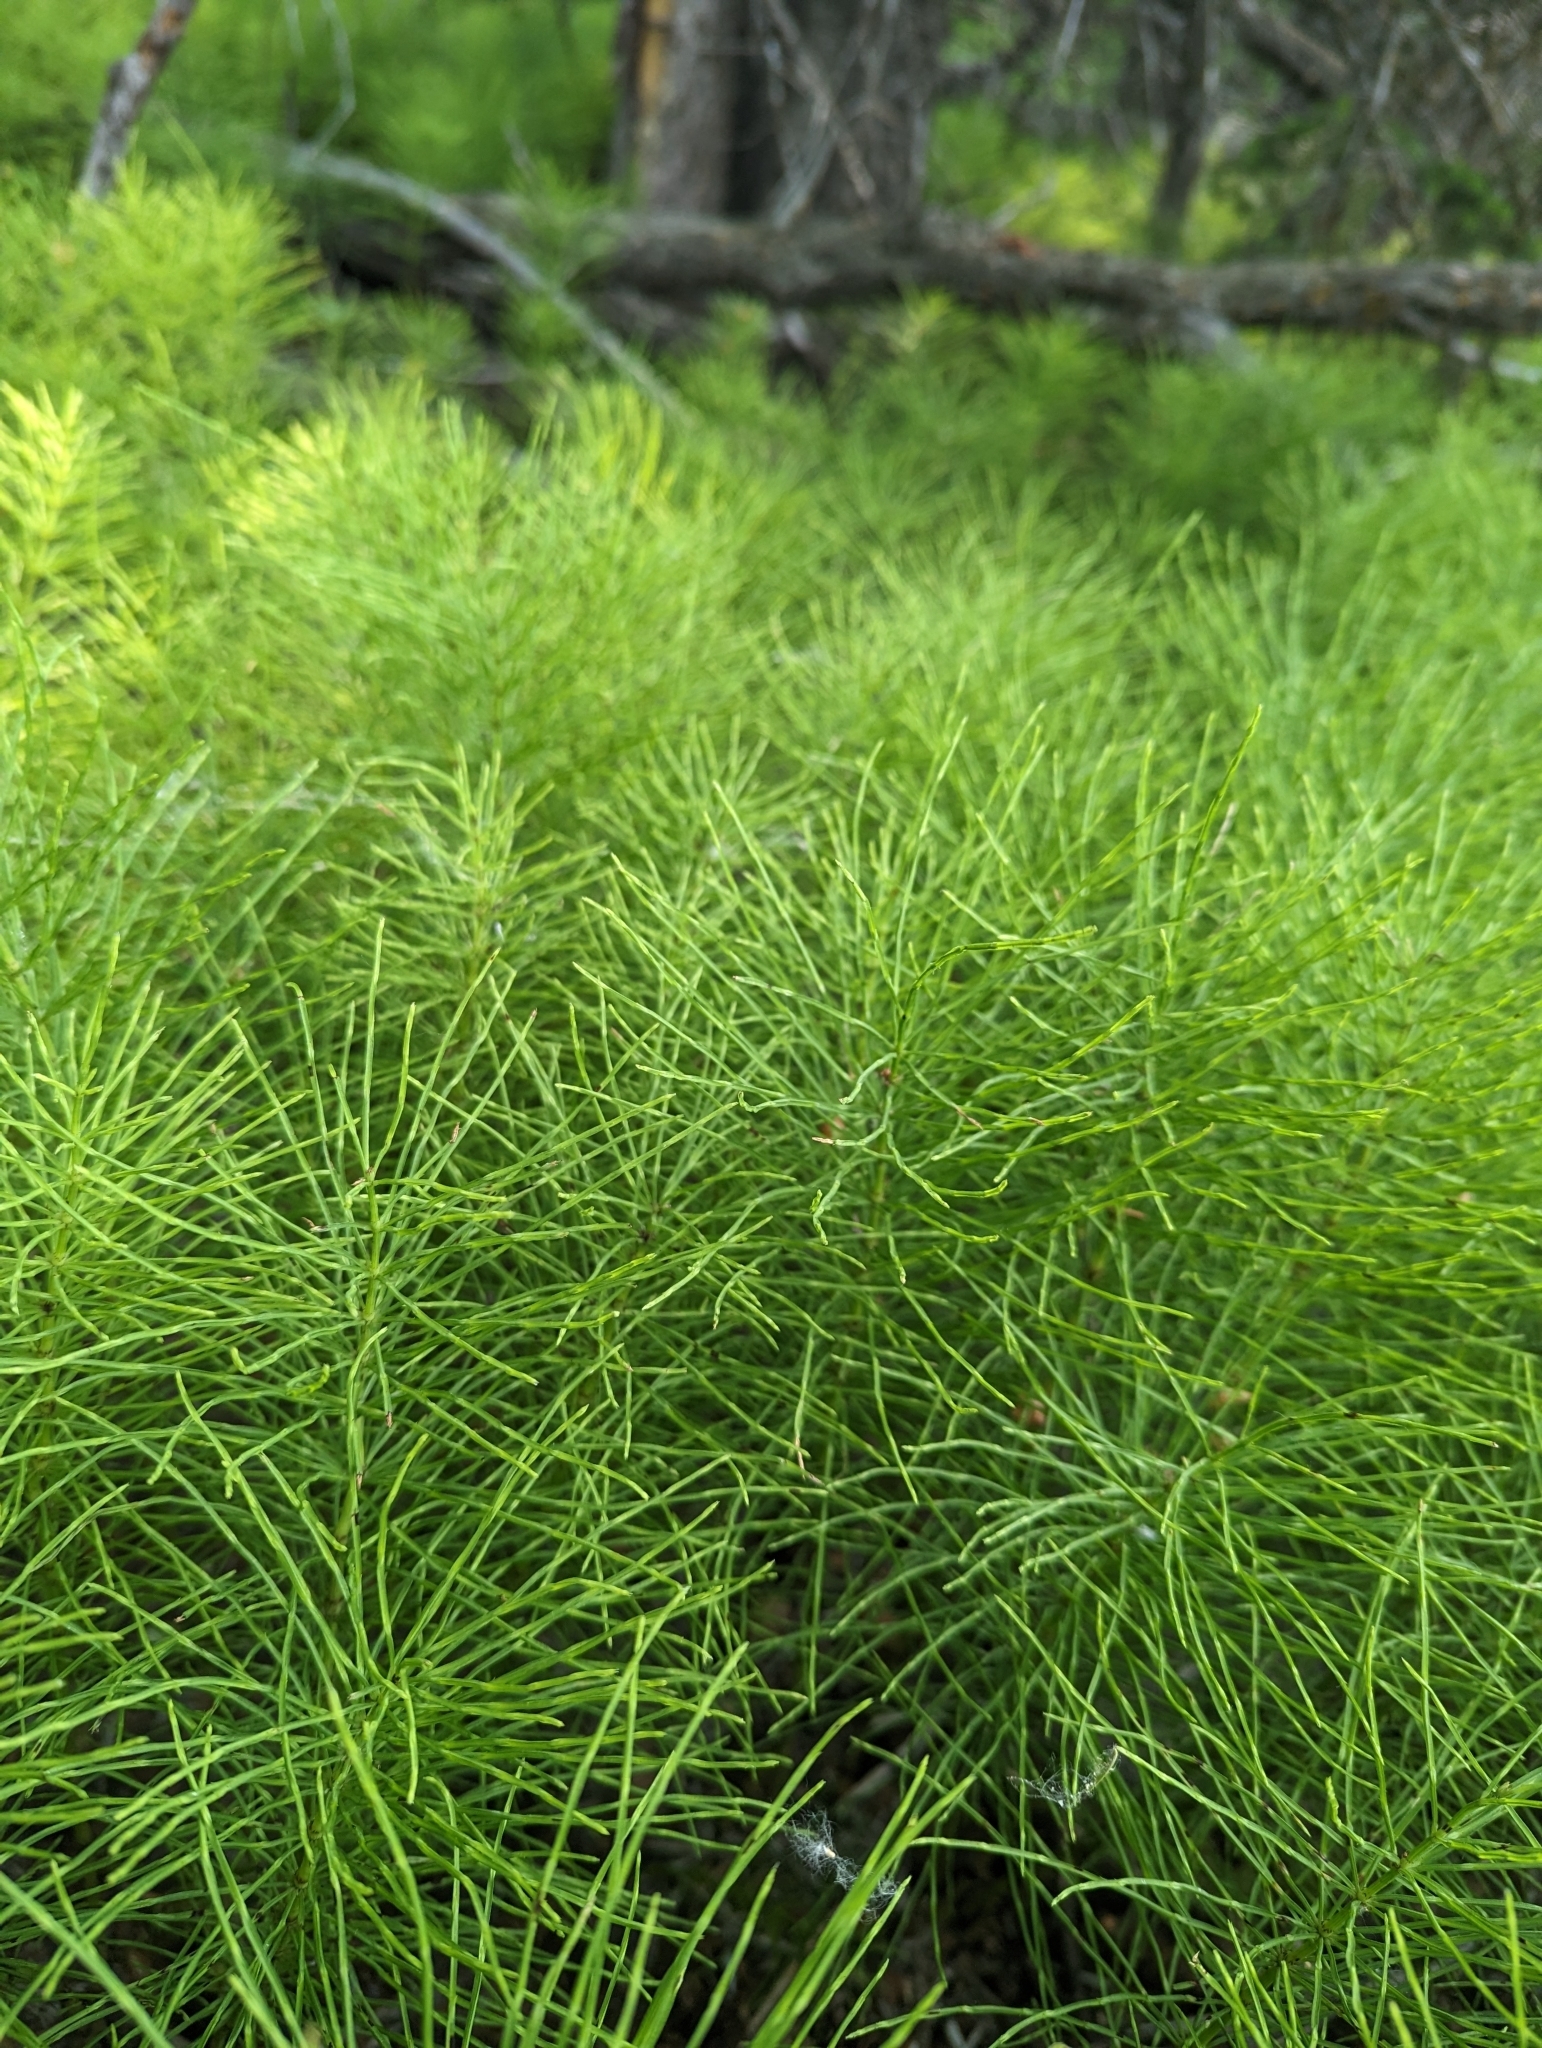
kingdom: Plantae
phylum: Tracheophyta
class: Polypodiopsida
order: Equisetales
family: Equisetaceae
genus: Equisetum
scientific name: Equisetum arvense
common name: Field horsetail
